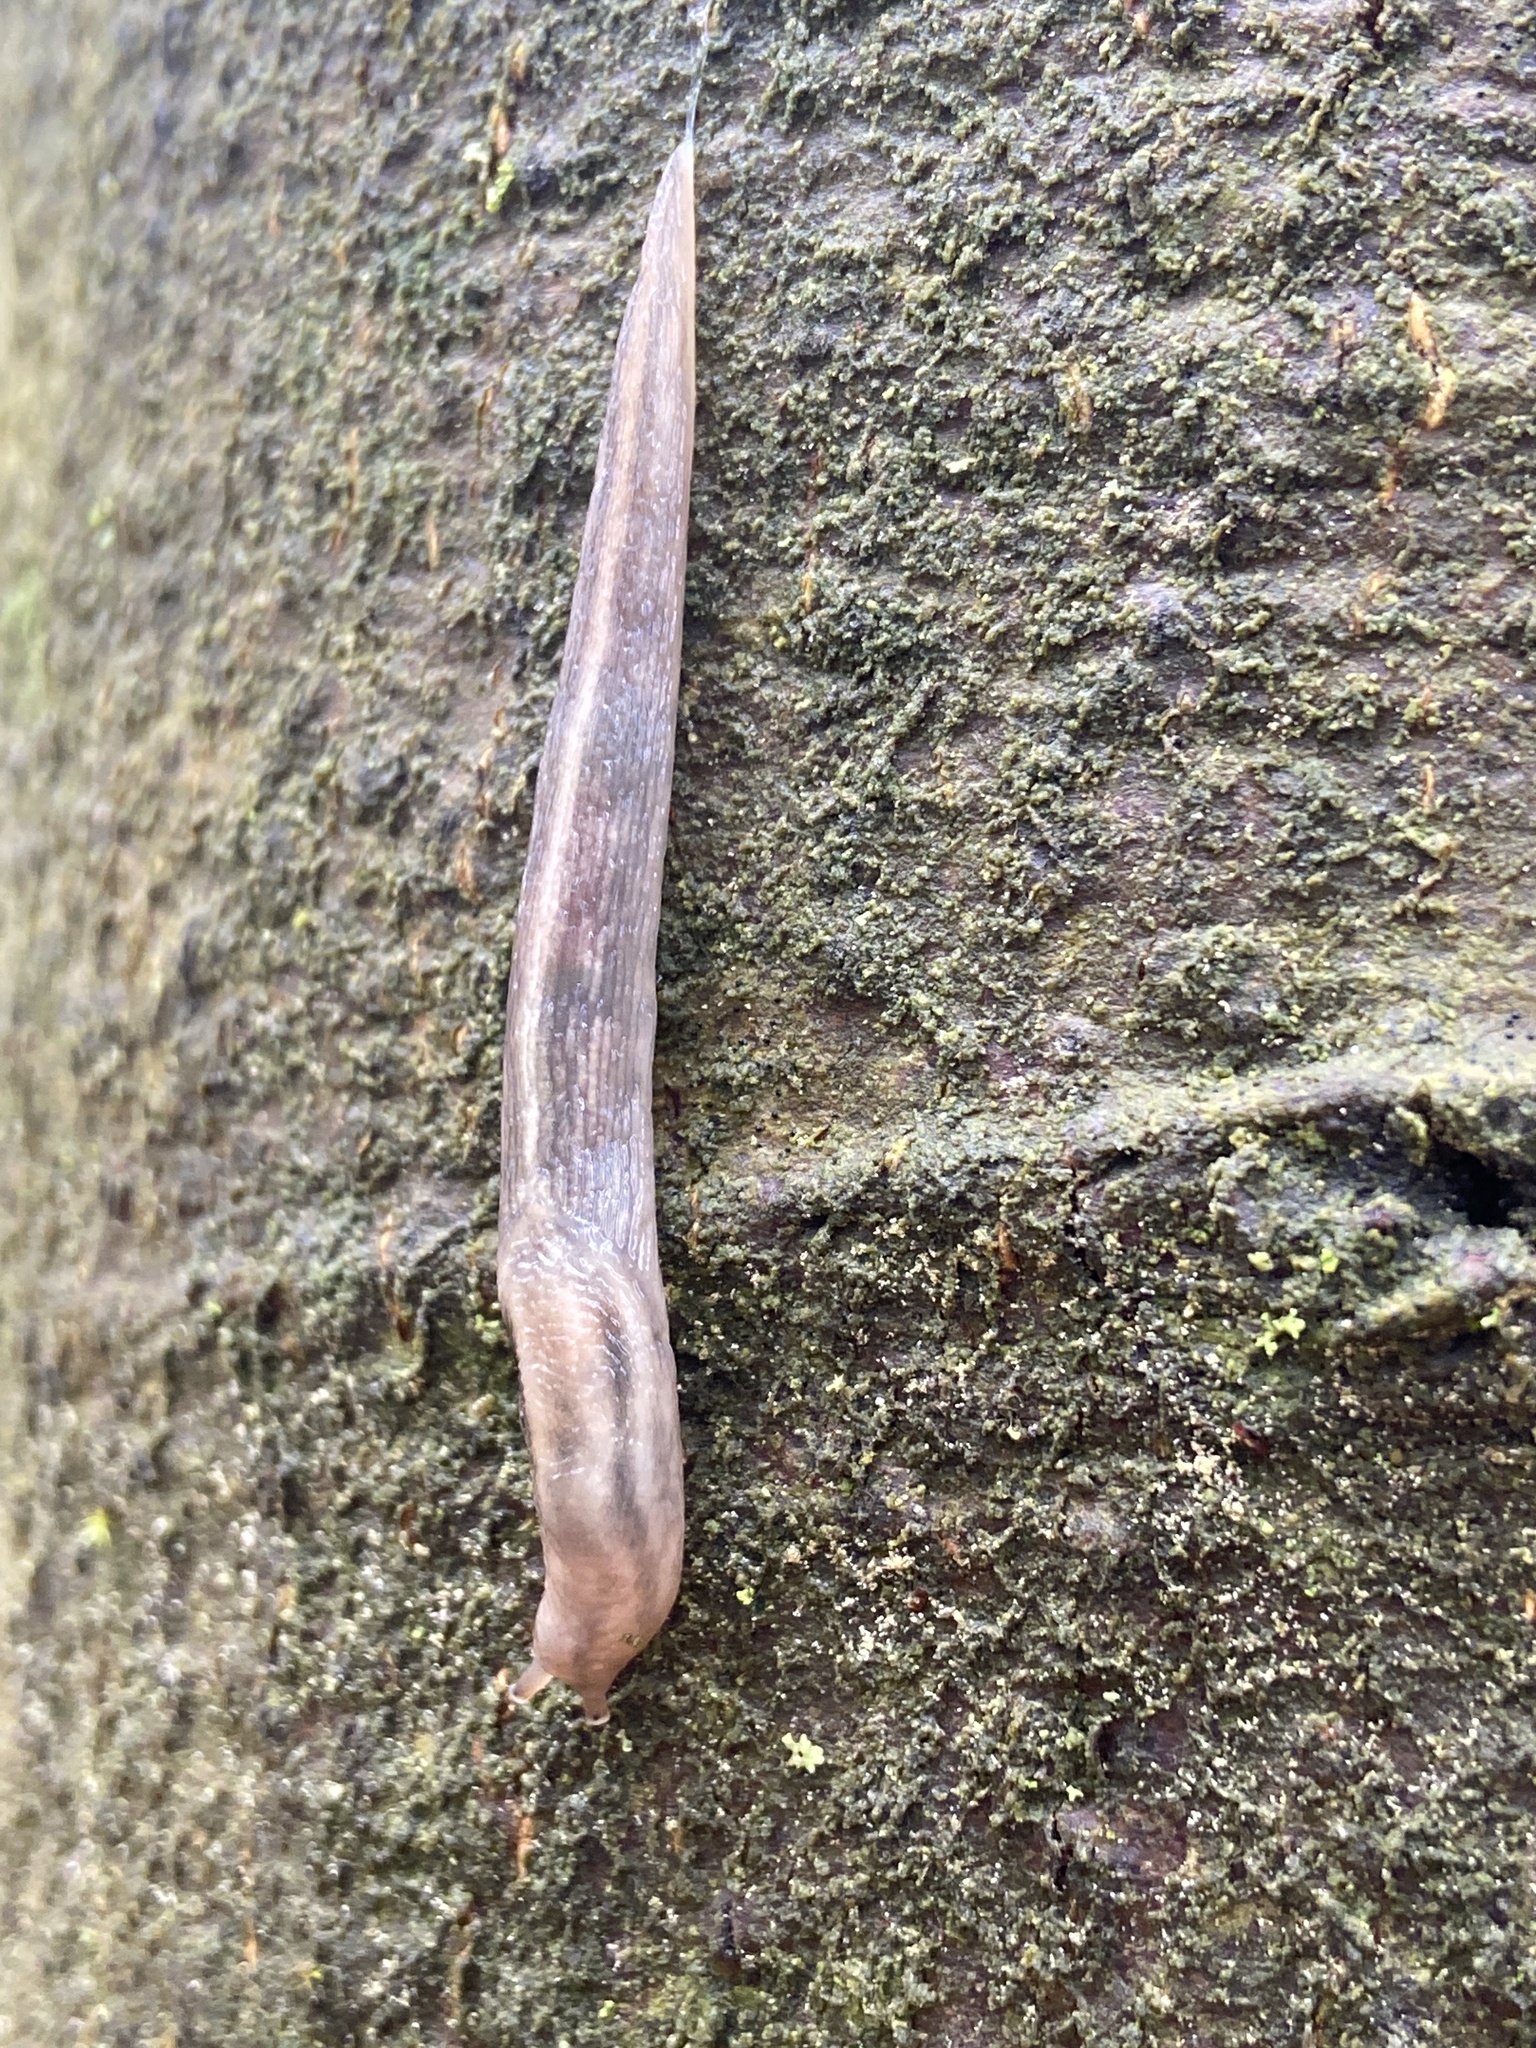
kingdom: Animalia
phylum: Mollusca
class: Gastropoda
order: Stylommatophora
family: Limacidae
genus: Lehmannia
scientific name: Lehmannia marginata
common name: Tree slug
